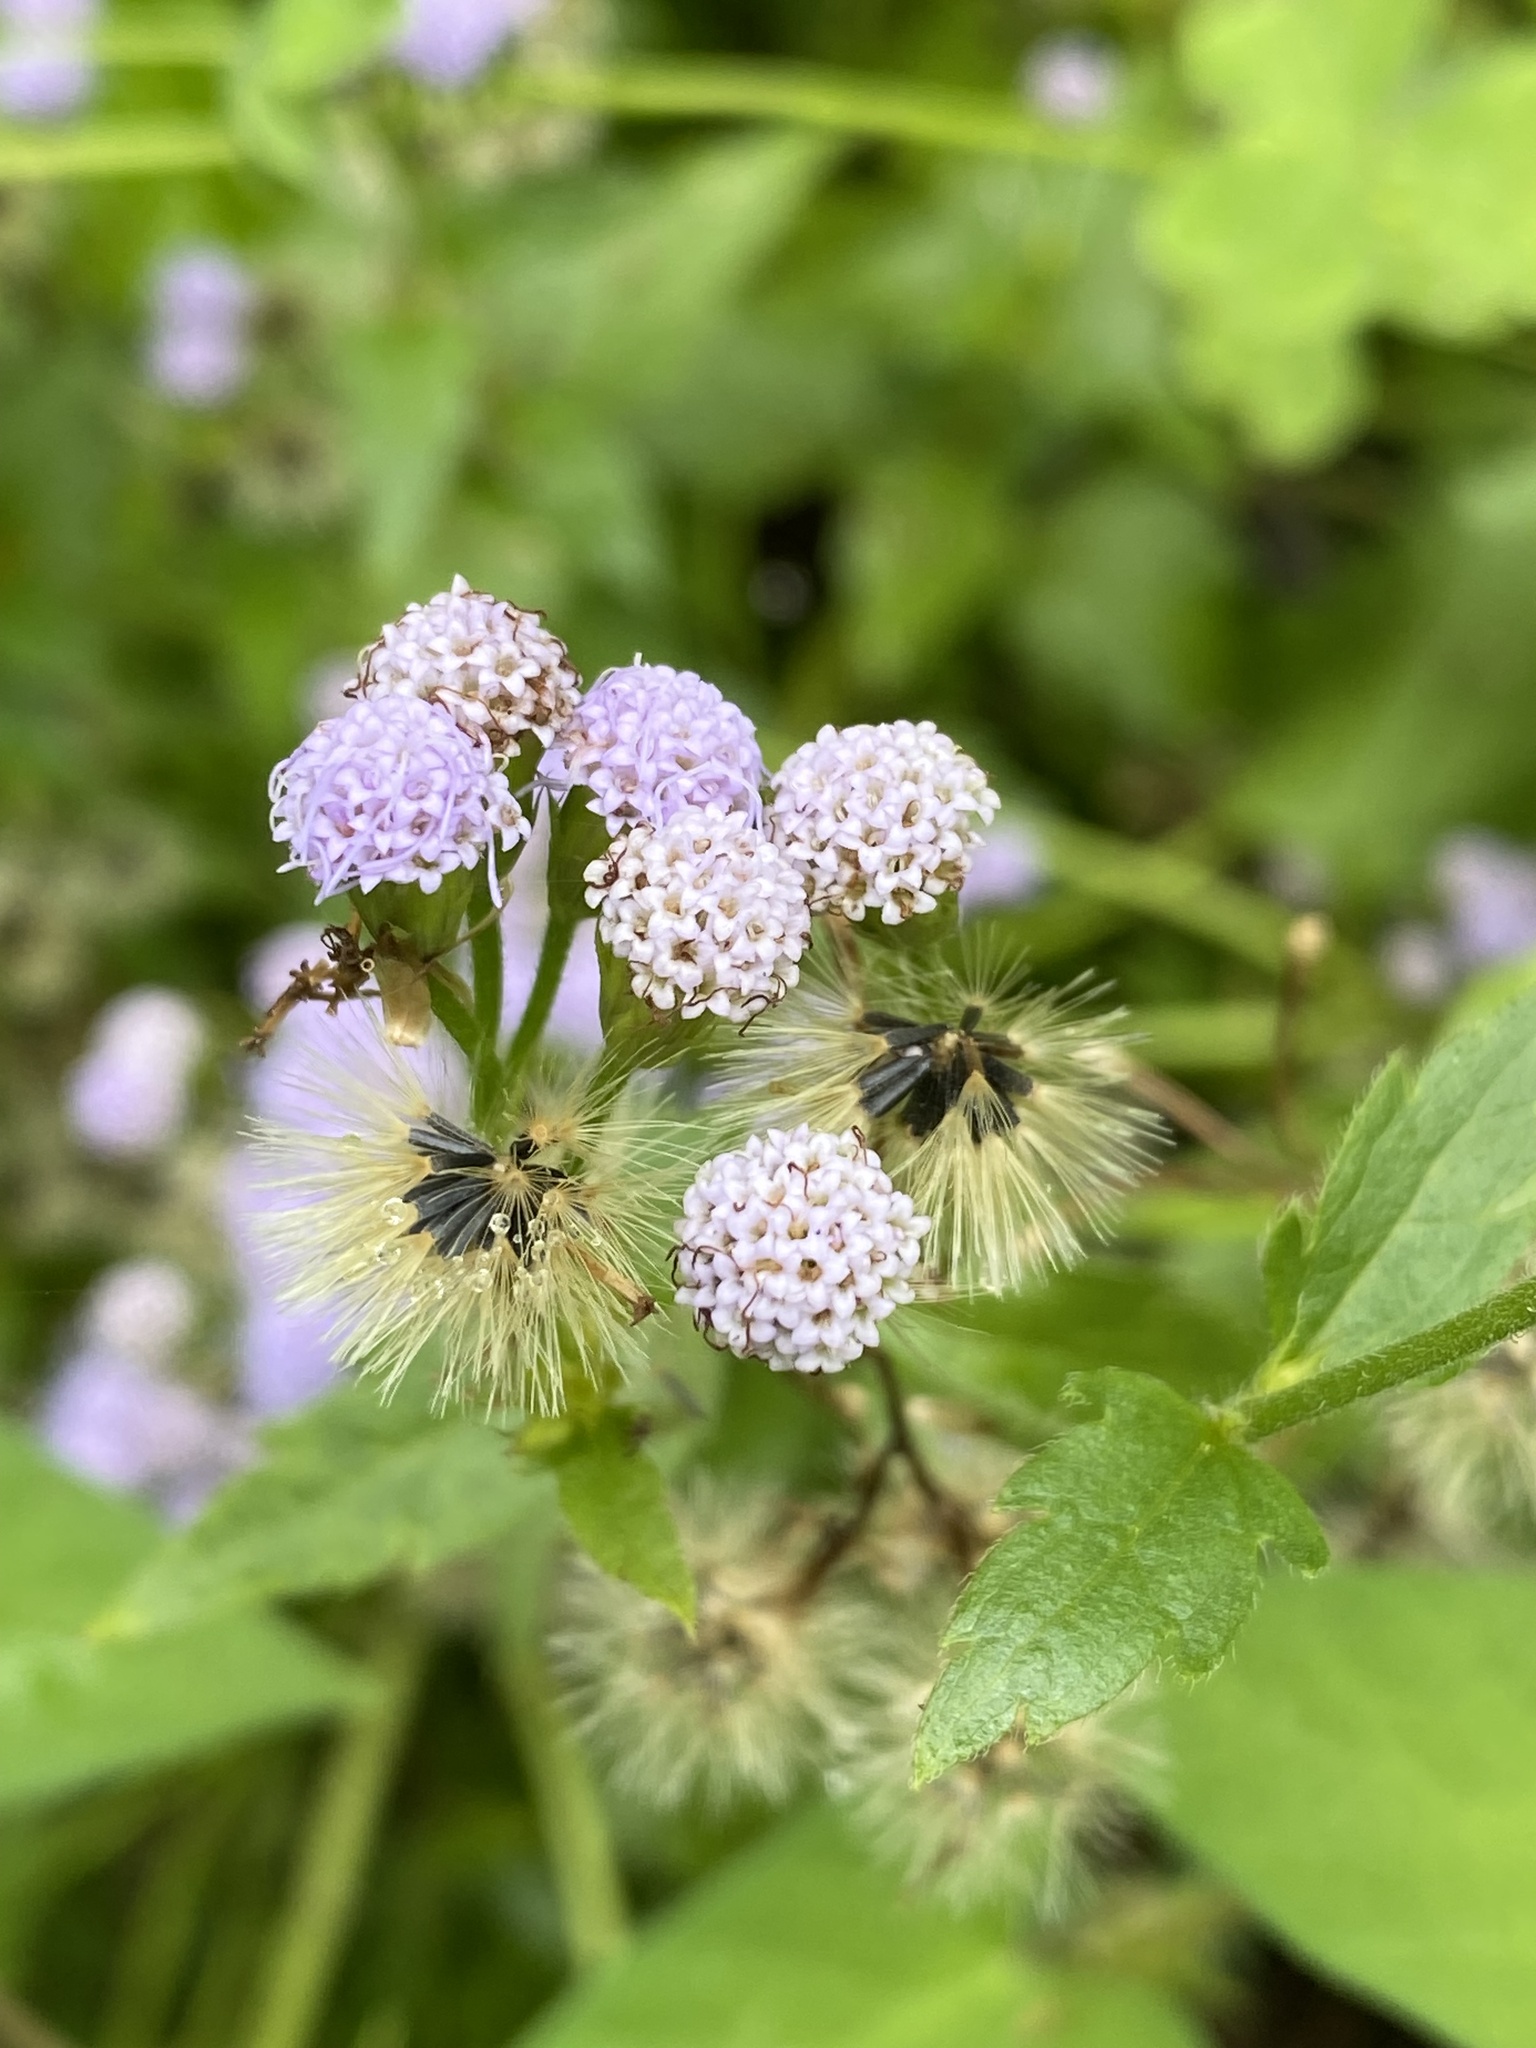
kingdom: Plantae
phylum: Tracheophyta
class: Magnoliopsida
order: Asterales
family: Asteraceae
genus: Praxelis
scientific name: Praxelis clematidea
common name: Praxelis
